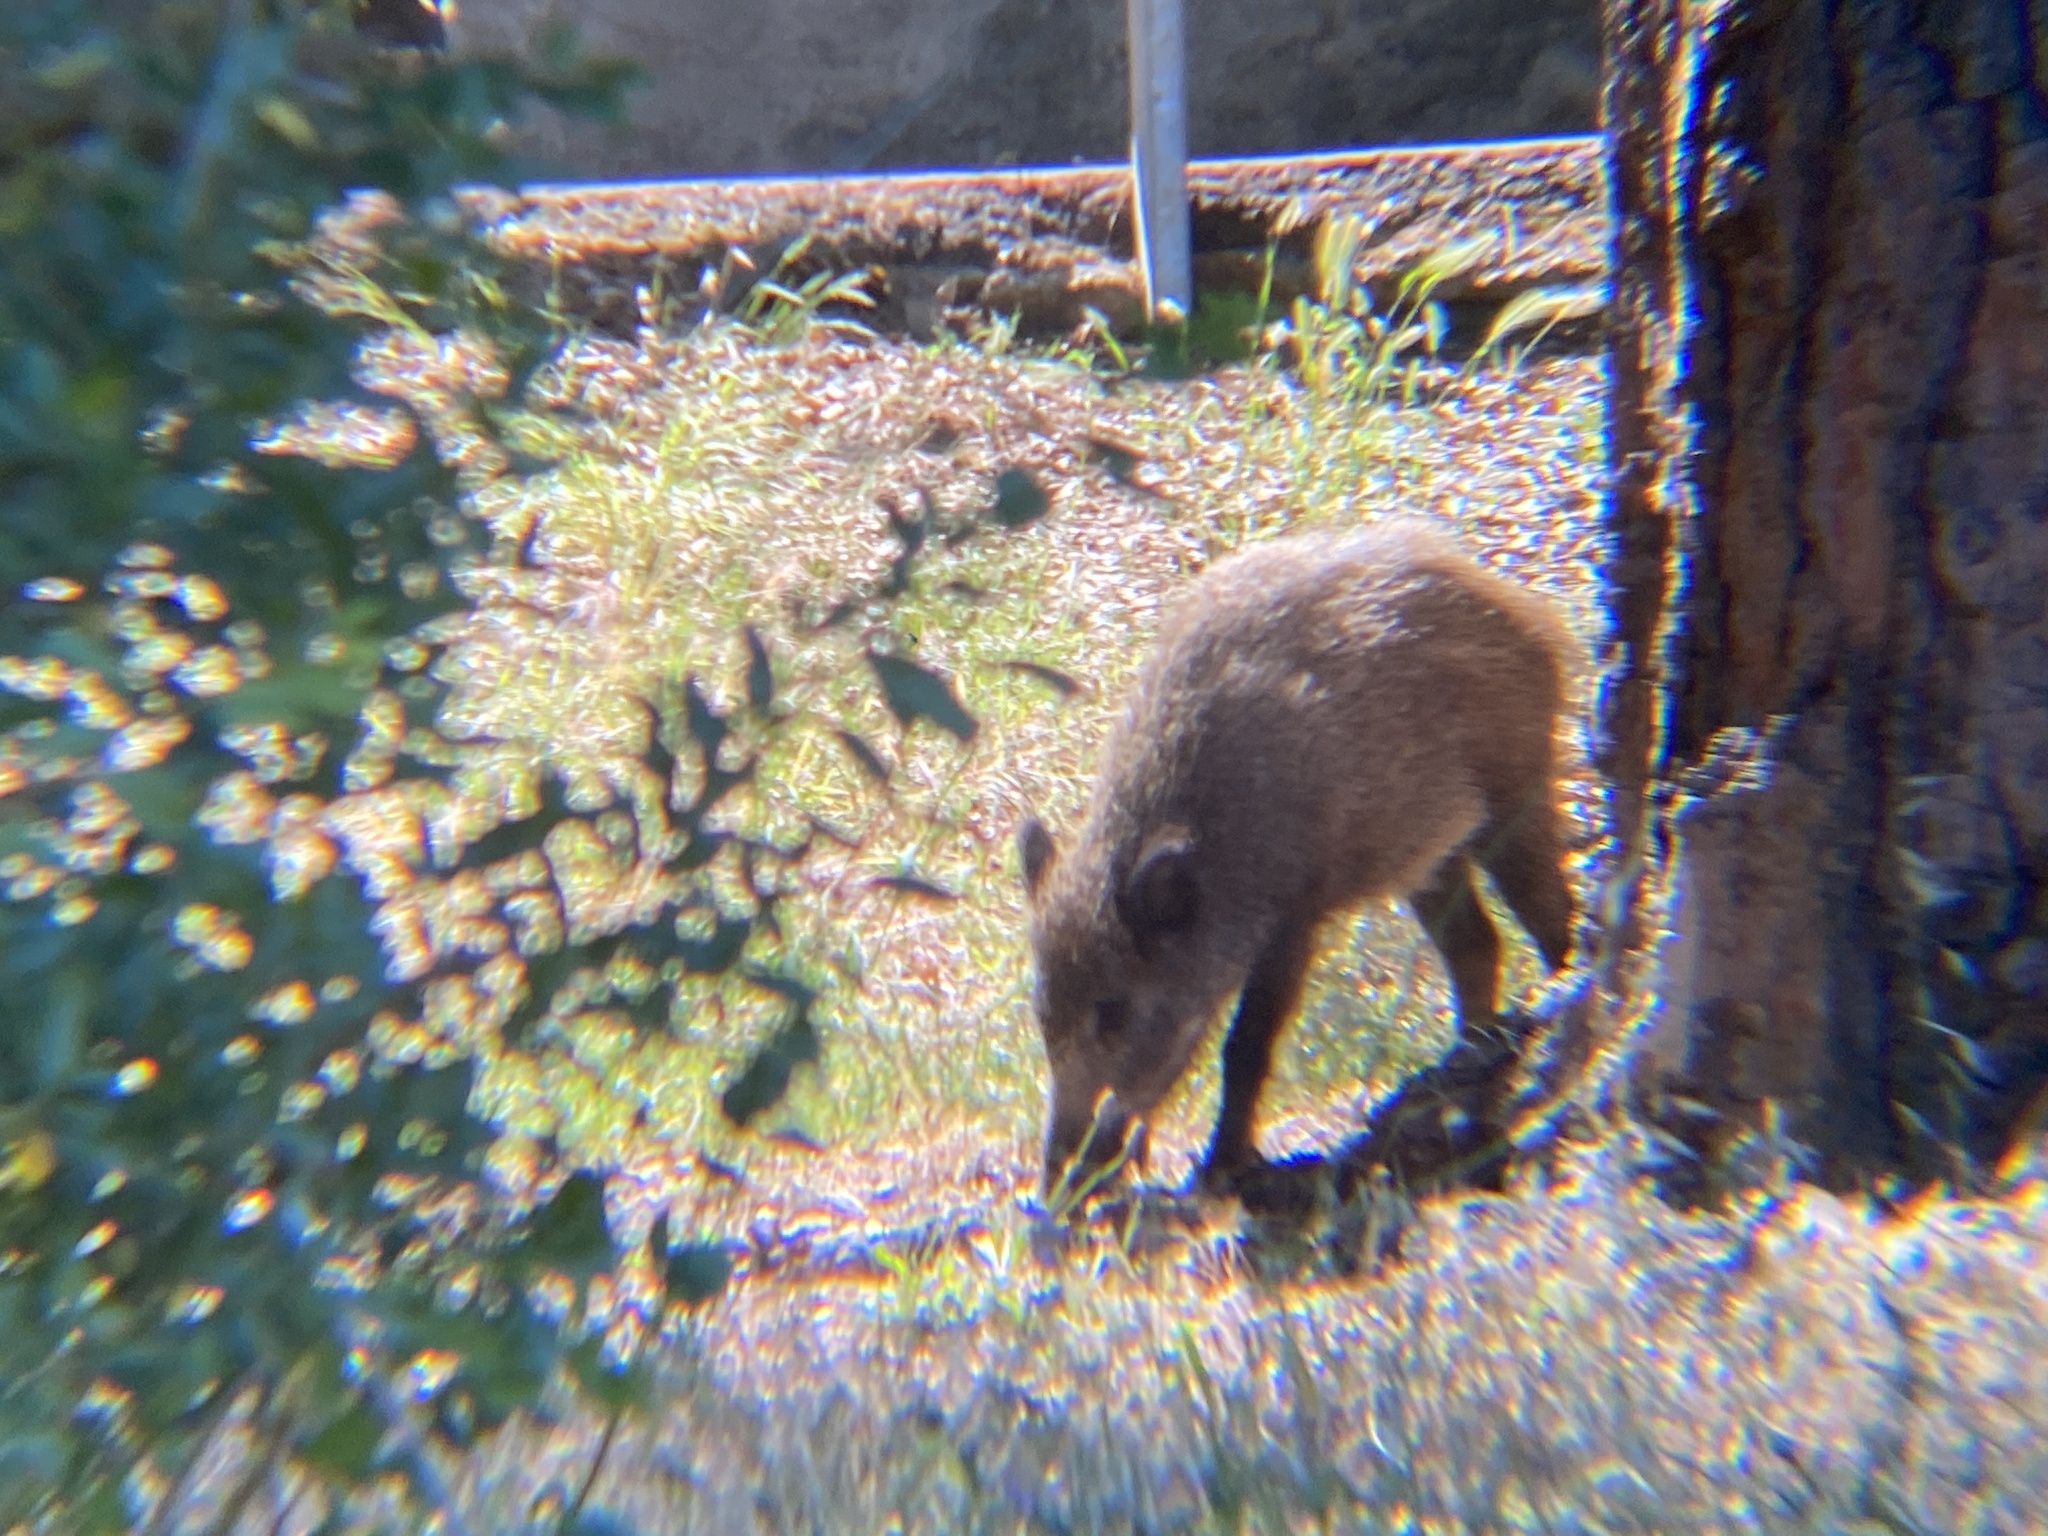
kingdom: Animalia
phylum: Chordata
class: Mammalia
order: Artiodactyla
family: Suidae
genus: Sus
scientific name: Sus scrofa
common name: Wild boar
